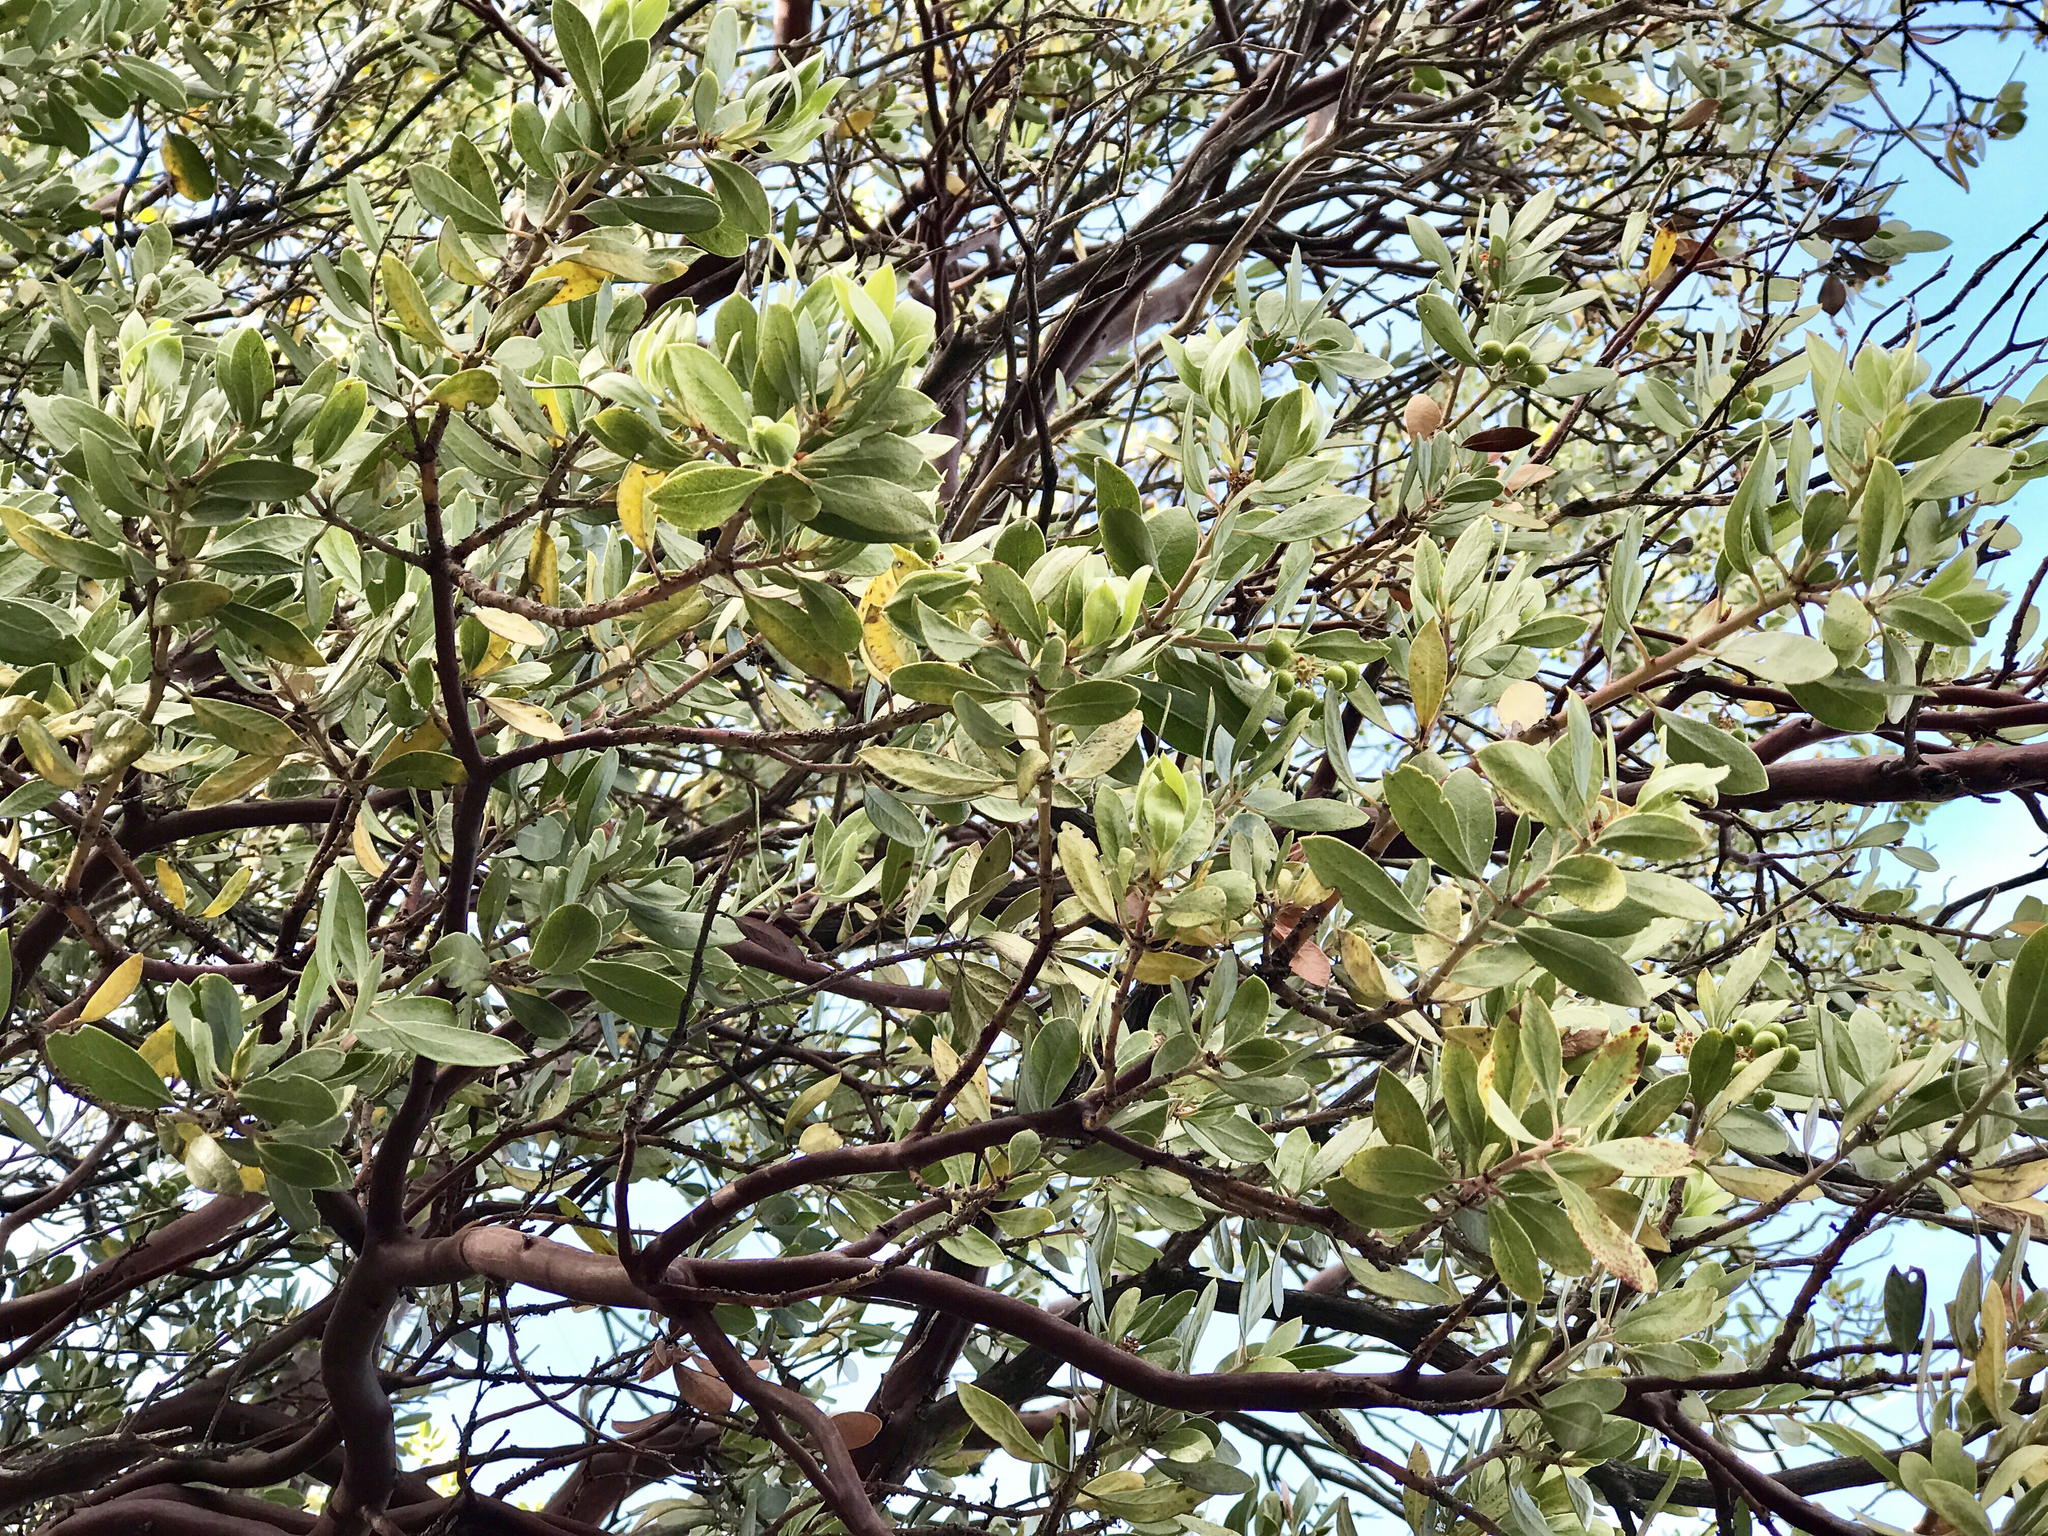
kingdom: Plantae
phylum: Tracheophyta
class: Magnoliopsida
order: Ericales
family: Ericaceae
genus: Arctostaphylos
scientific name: Arctostaphylos pungens
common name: Mexican manzanita
